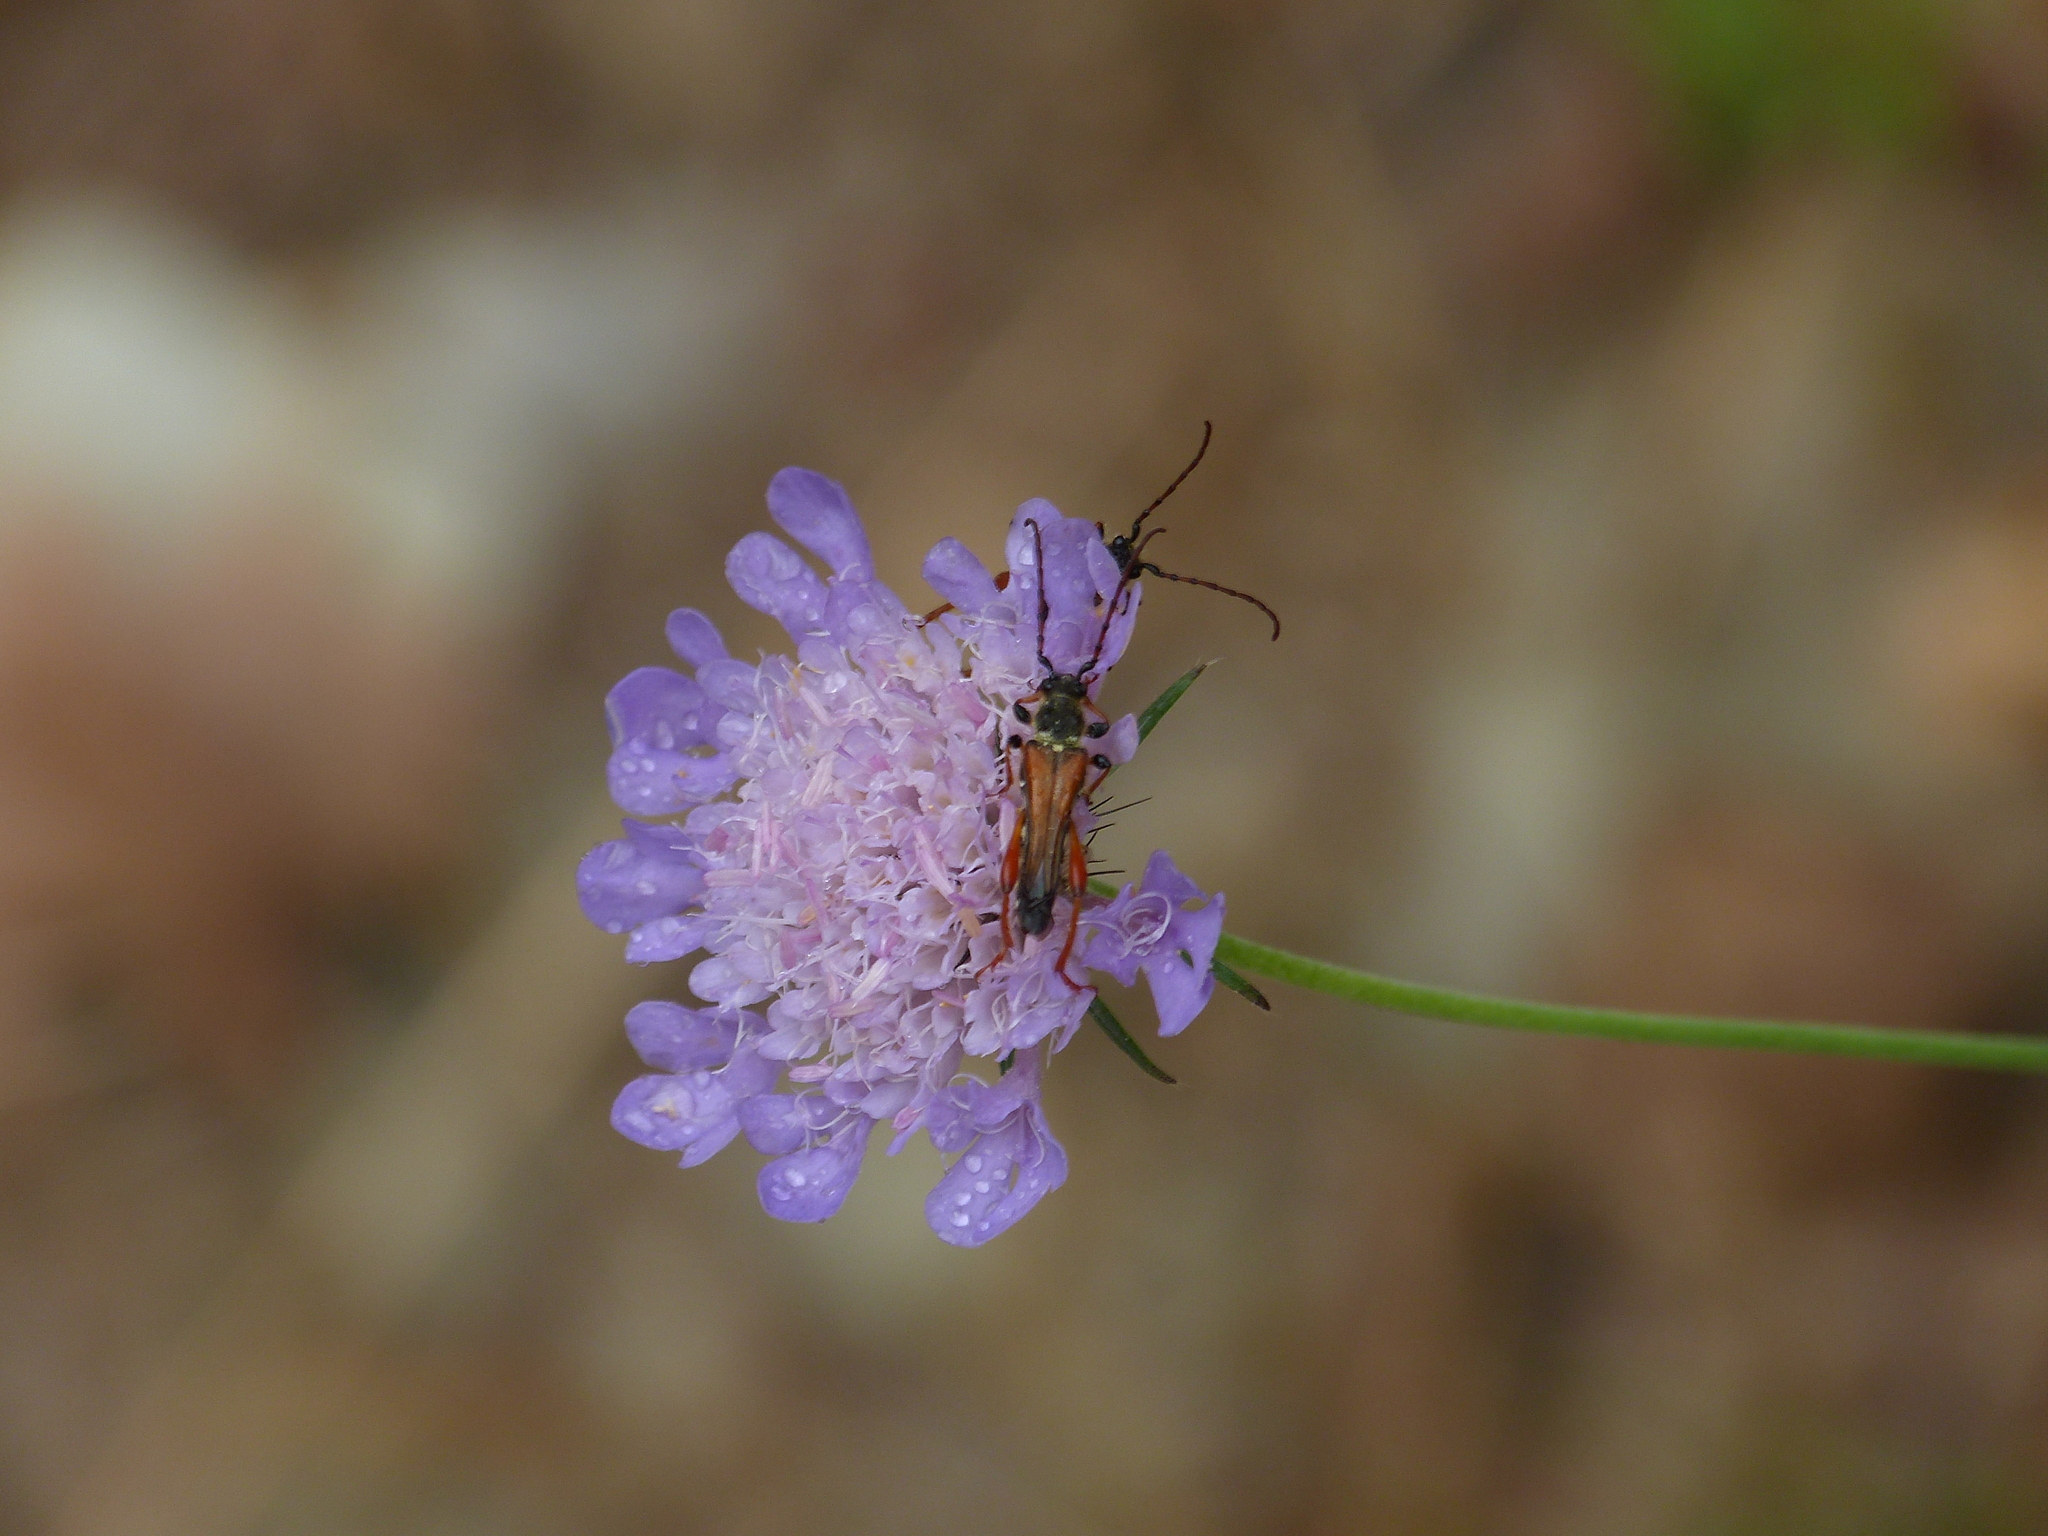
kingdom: Animalia
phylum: Arthropoda
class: Insecta
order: Coleoptera
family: Cerambycidae
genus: Stenopterus
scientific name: Stenopterus rufus
